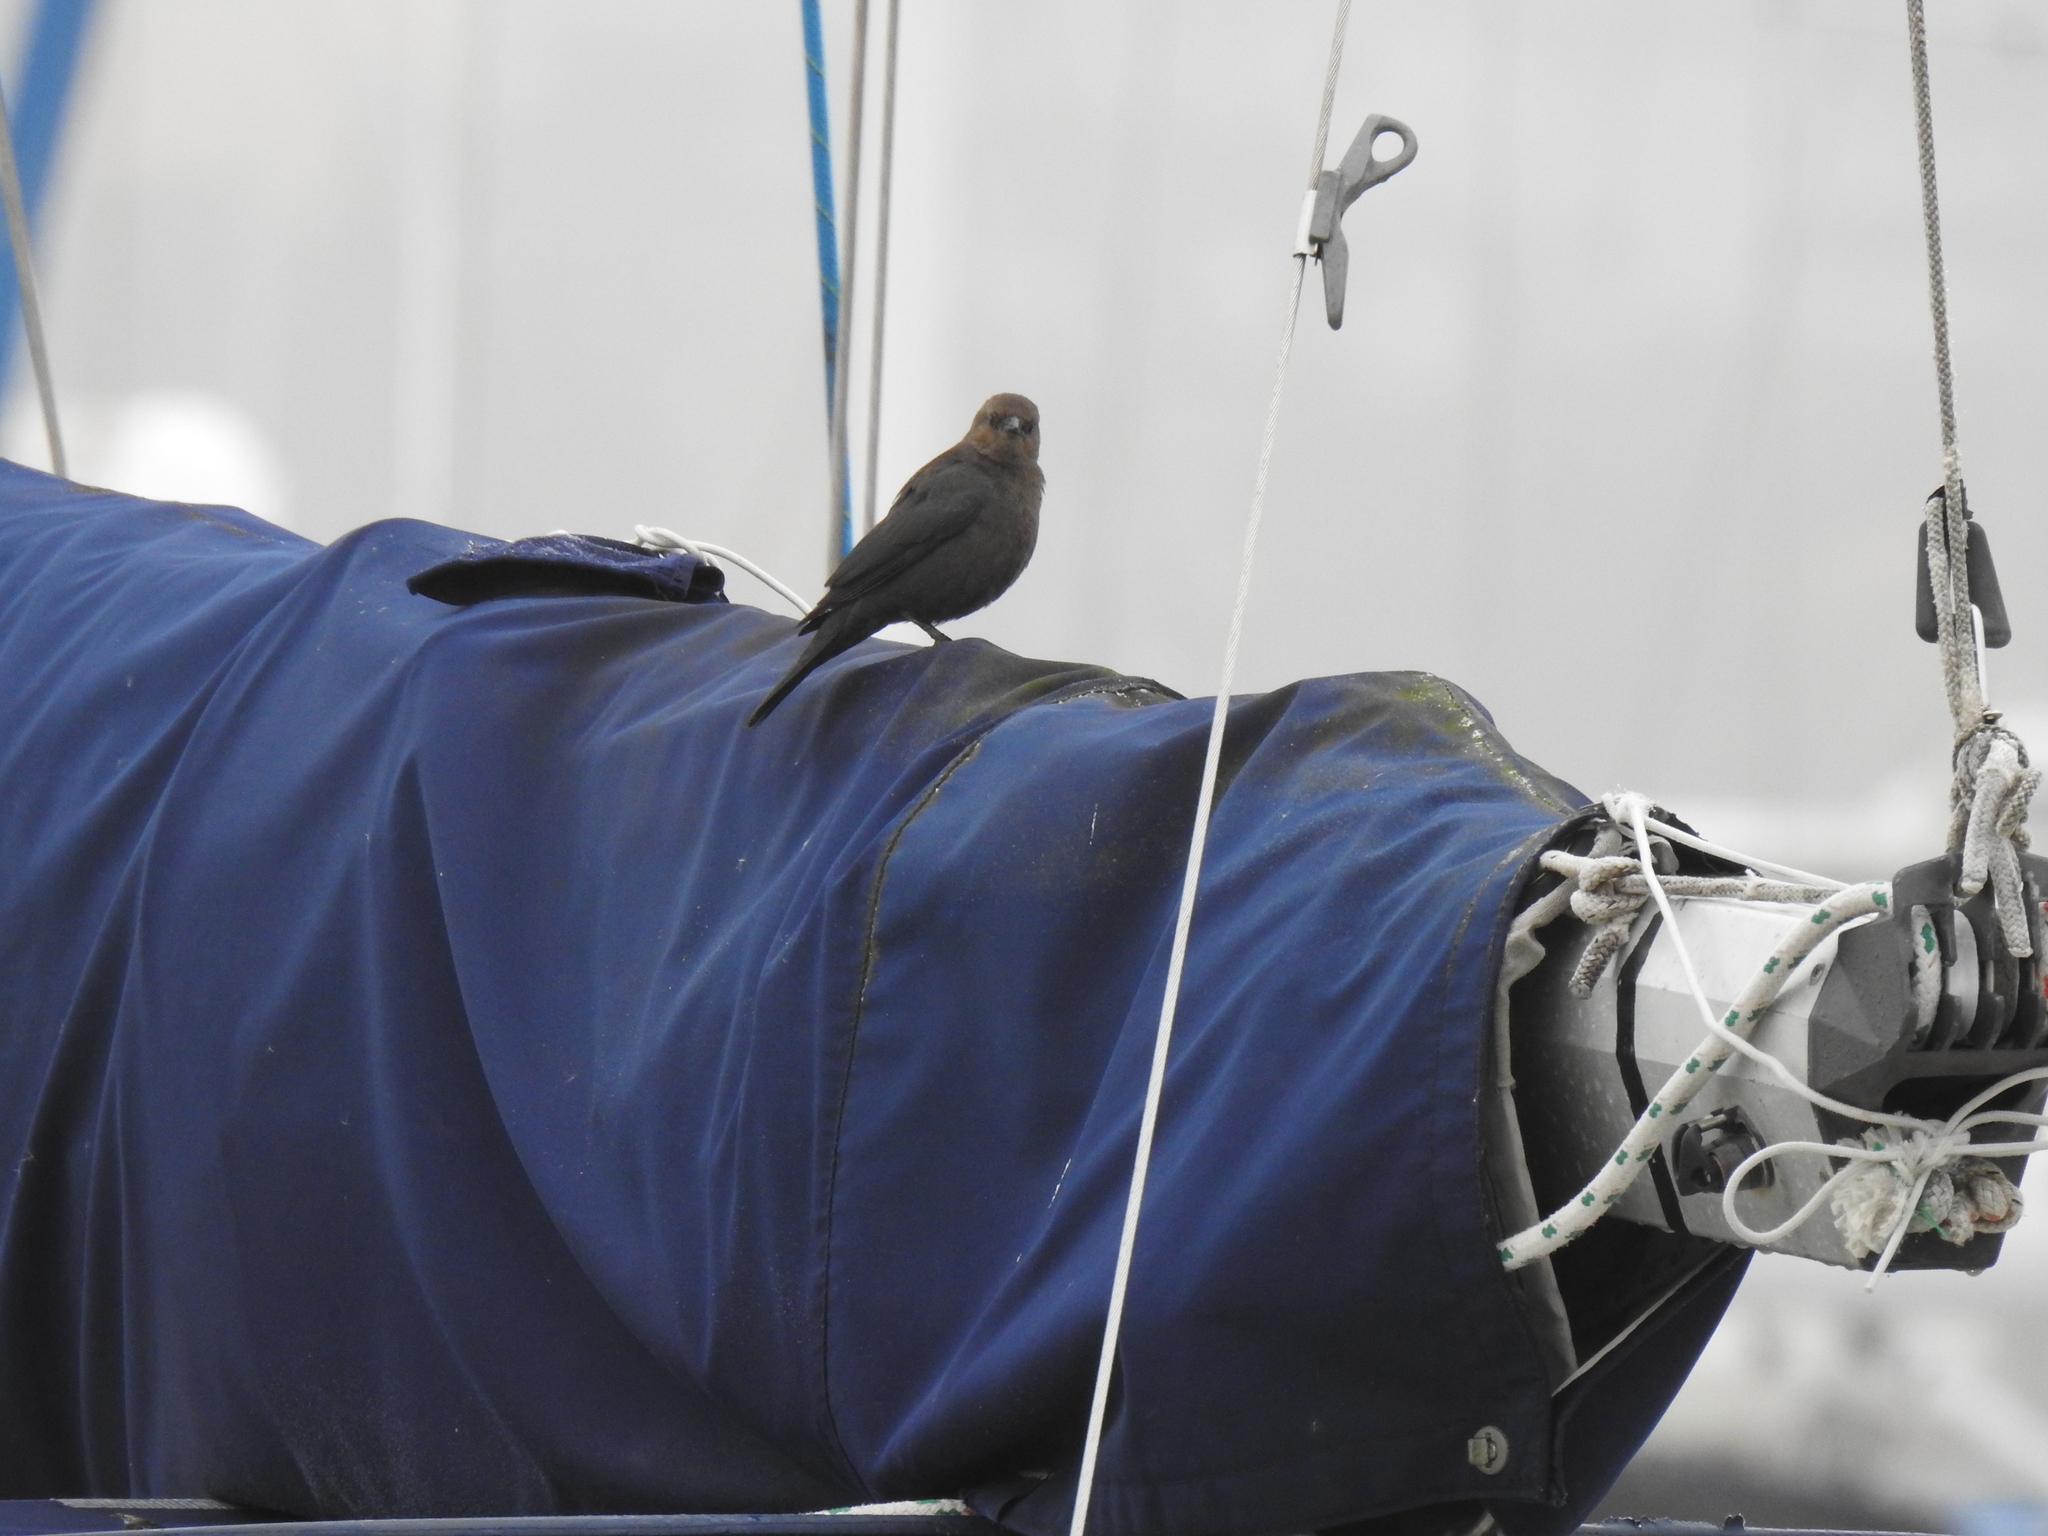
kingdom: Animalia
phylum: Chordata
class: Aves
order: Passeriformes
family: Icteridae
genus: Euphagus
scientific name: Euphagus cyanocephalus
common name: Brewer's blackbird
